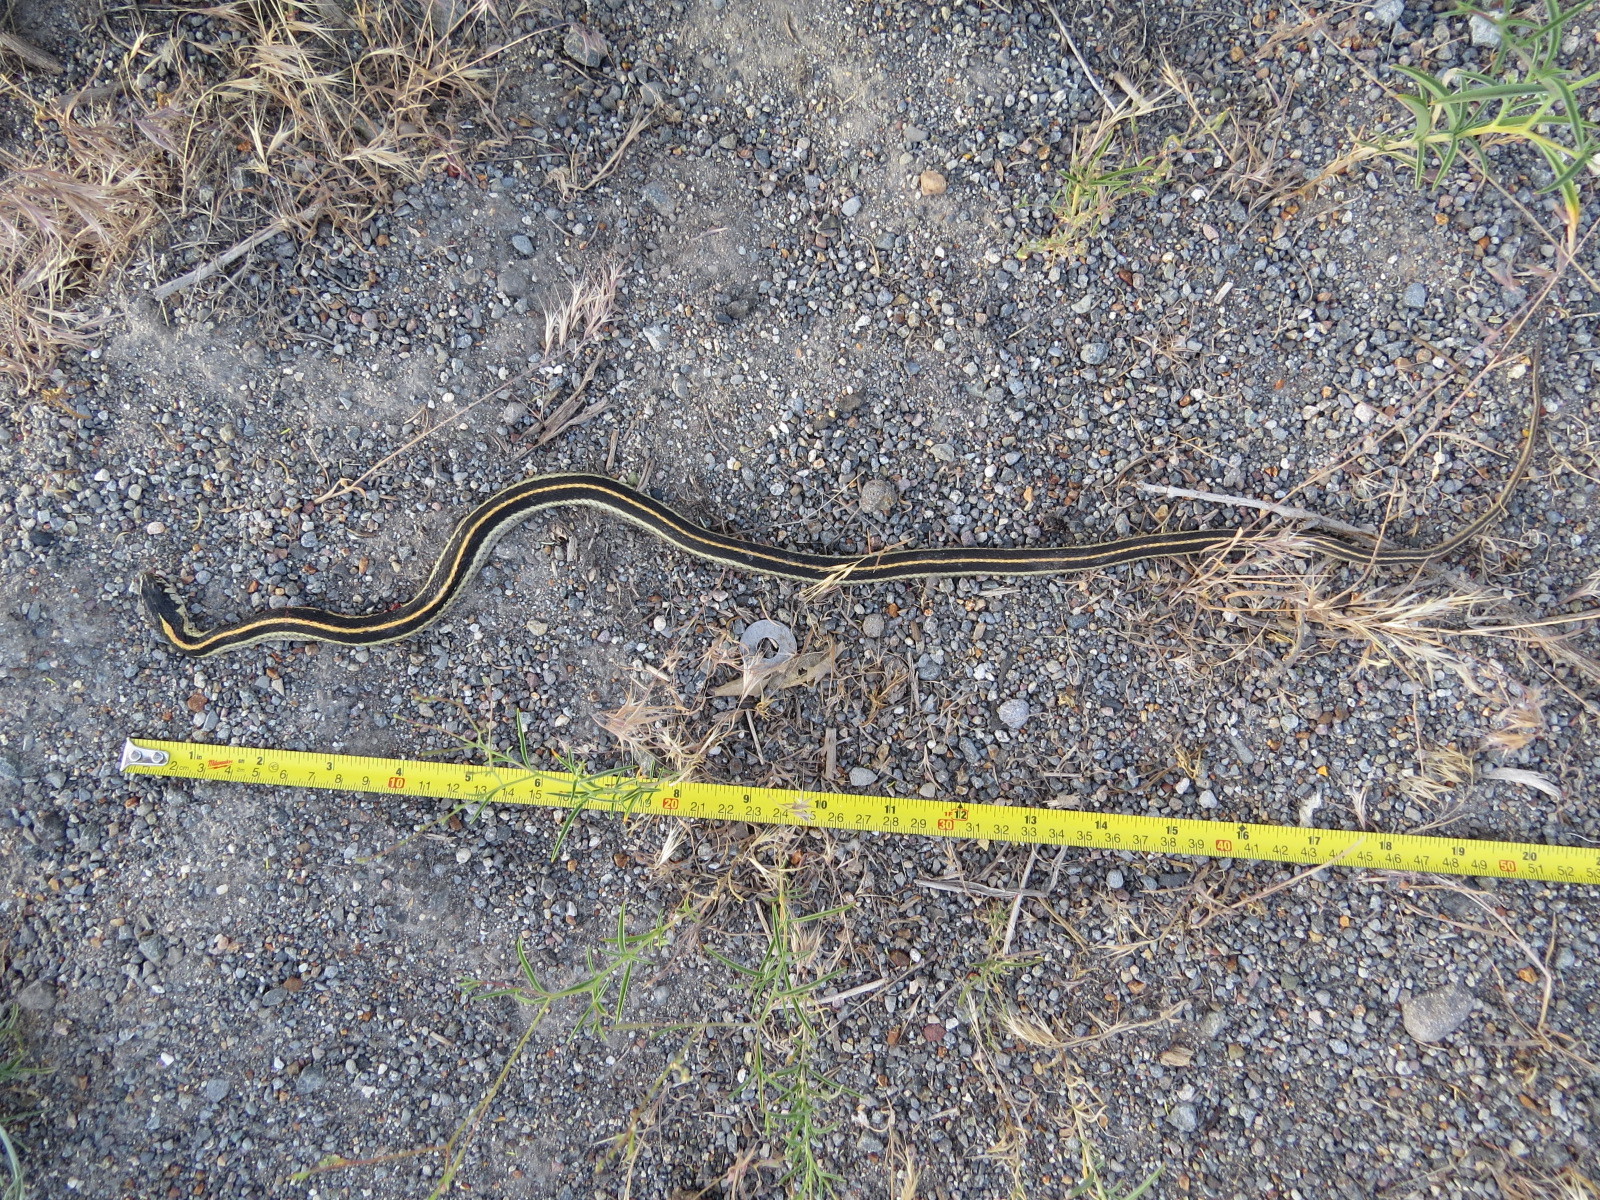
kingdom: Animalia
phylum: Chordata
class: Squamata
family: Colubridae
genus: Thamnophis
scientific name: Thamnophis elegans
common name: Western terrestrial garter snake
